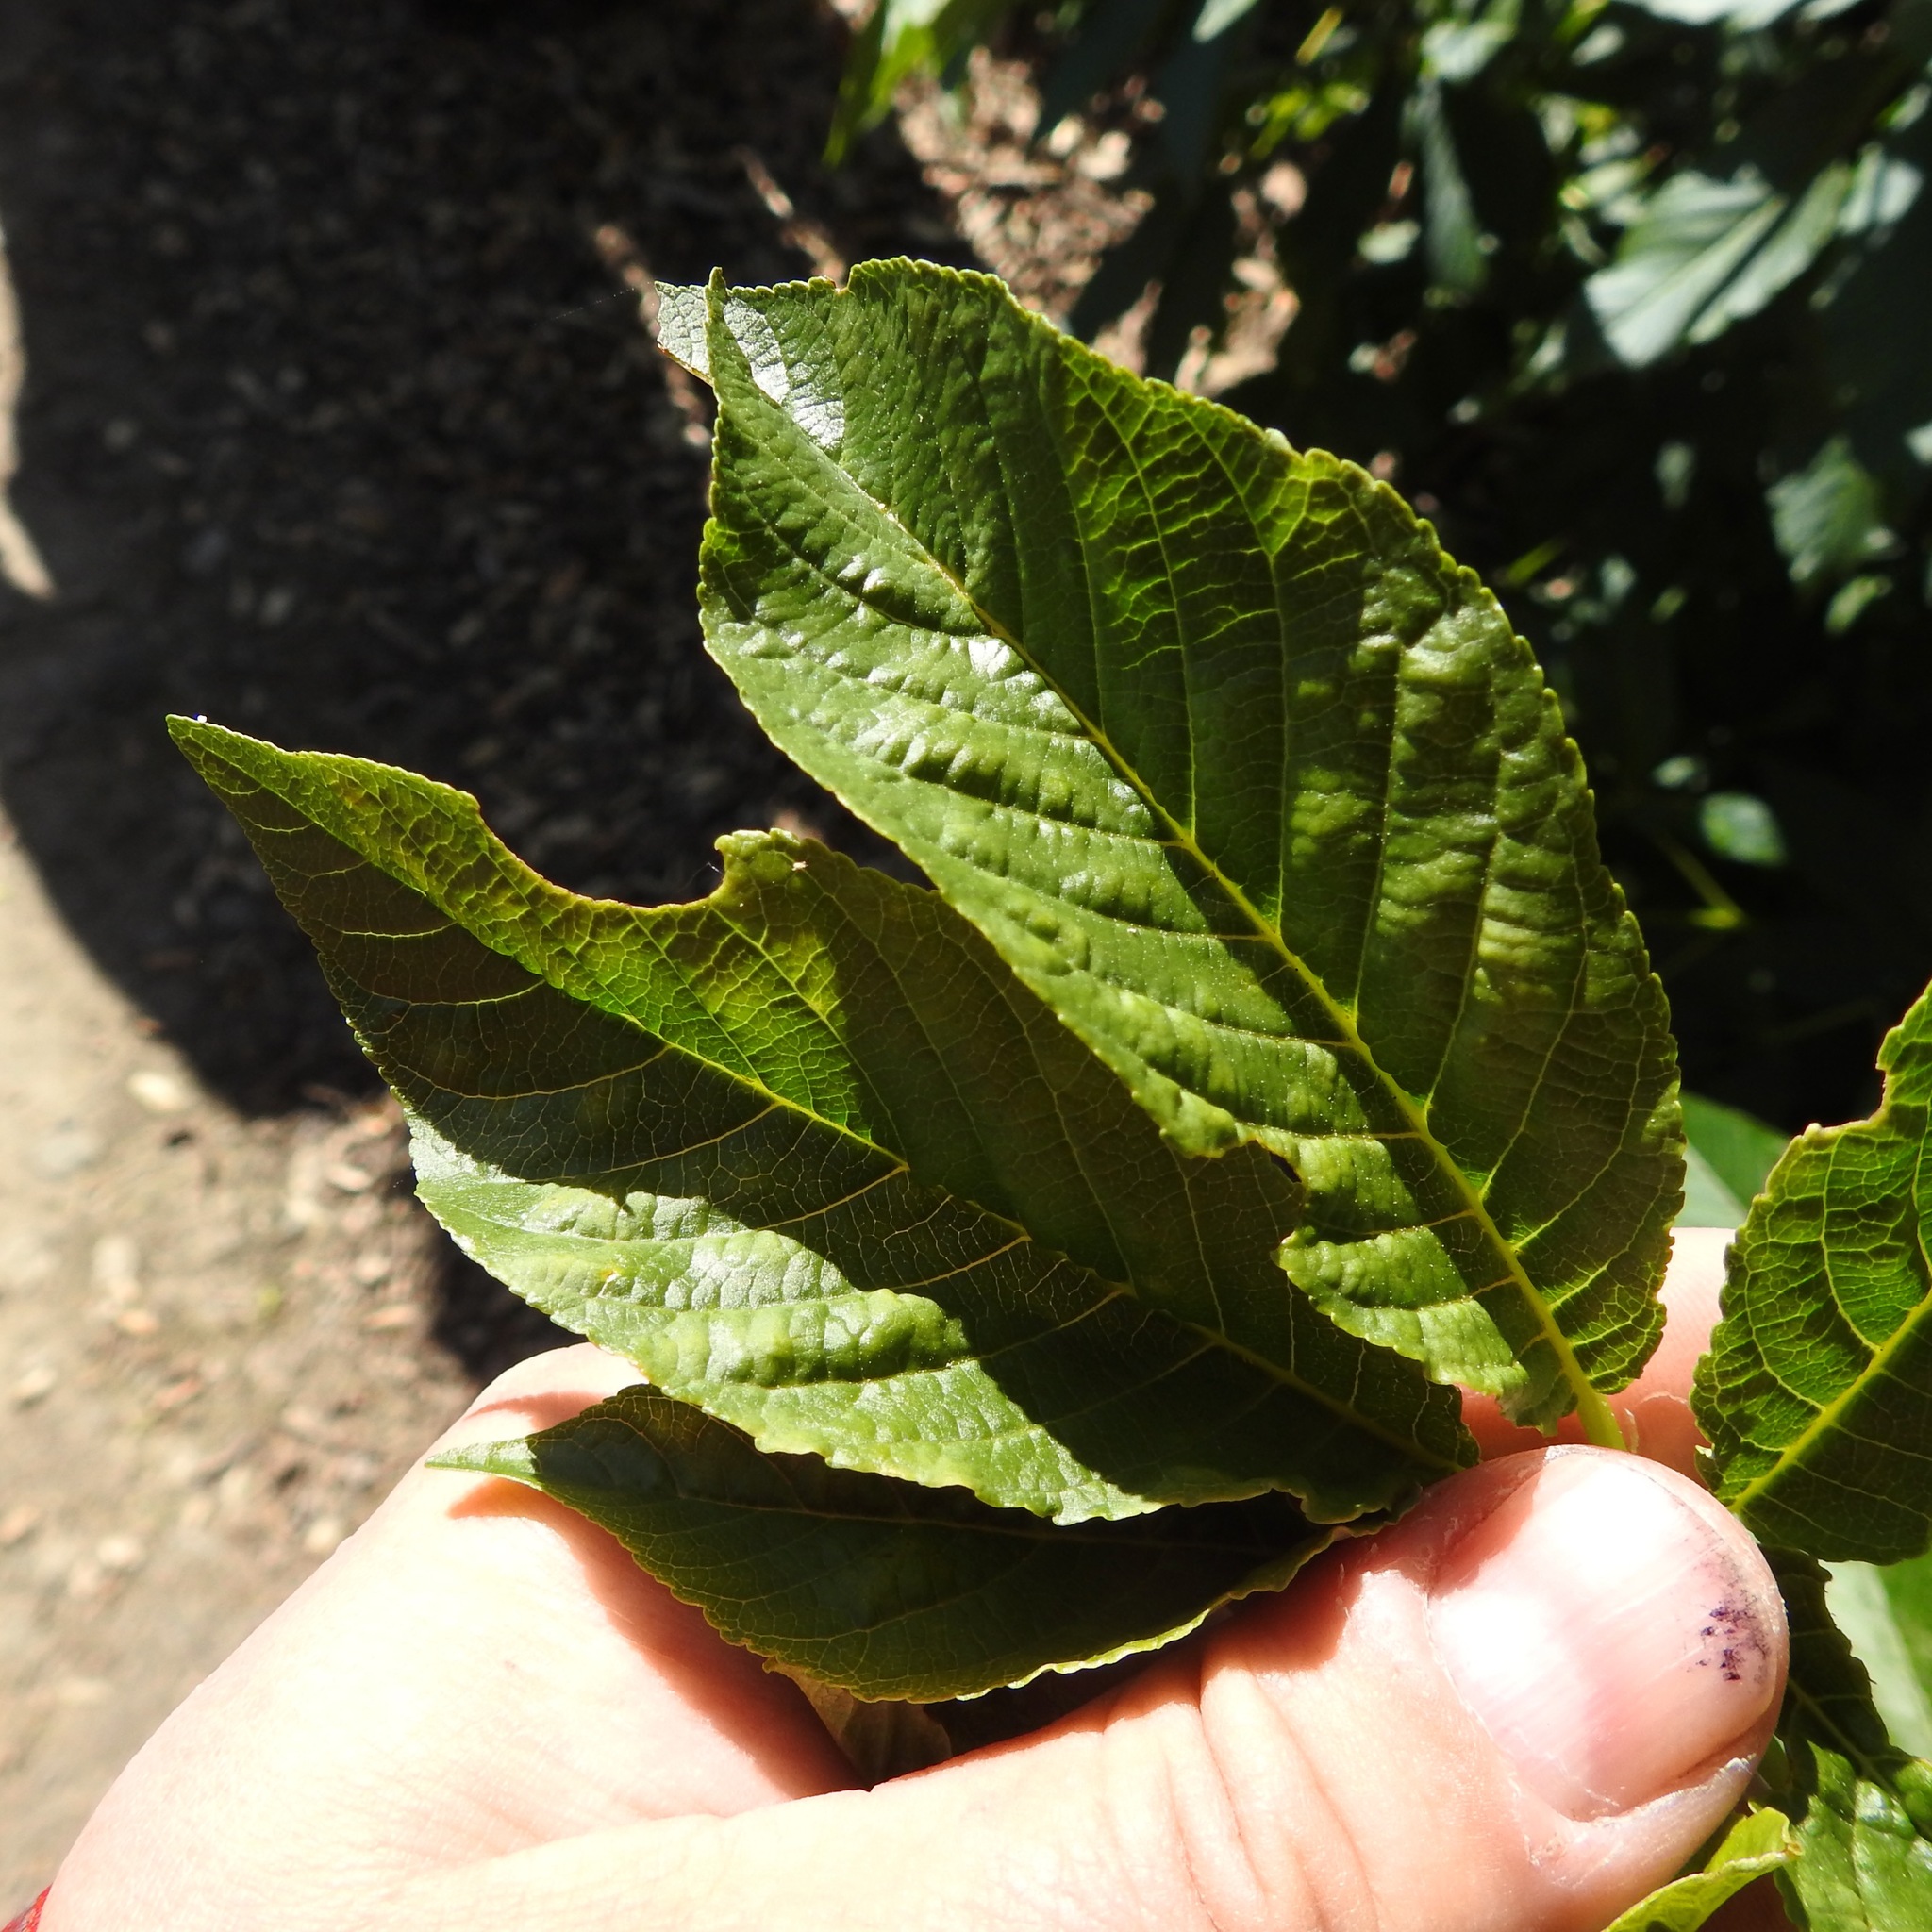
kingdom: Plantae
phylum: Tracheophyta
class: Magnoliopsida
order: Sapindales
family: Sapindaceae
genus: Aesculus
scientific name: Aesculus californica
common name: California buckeye
